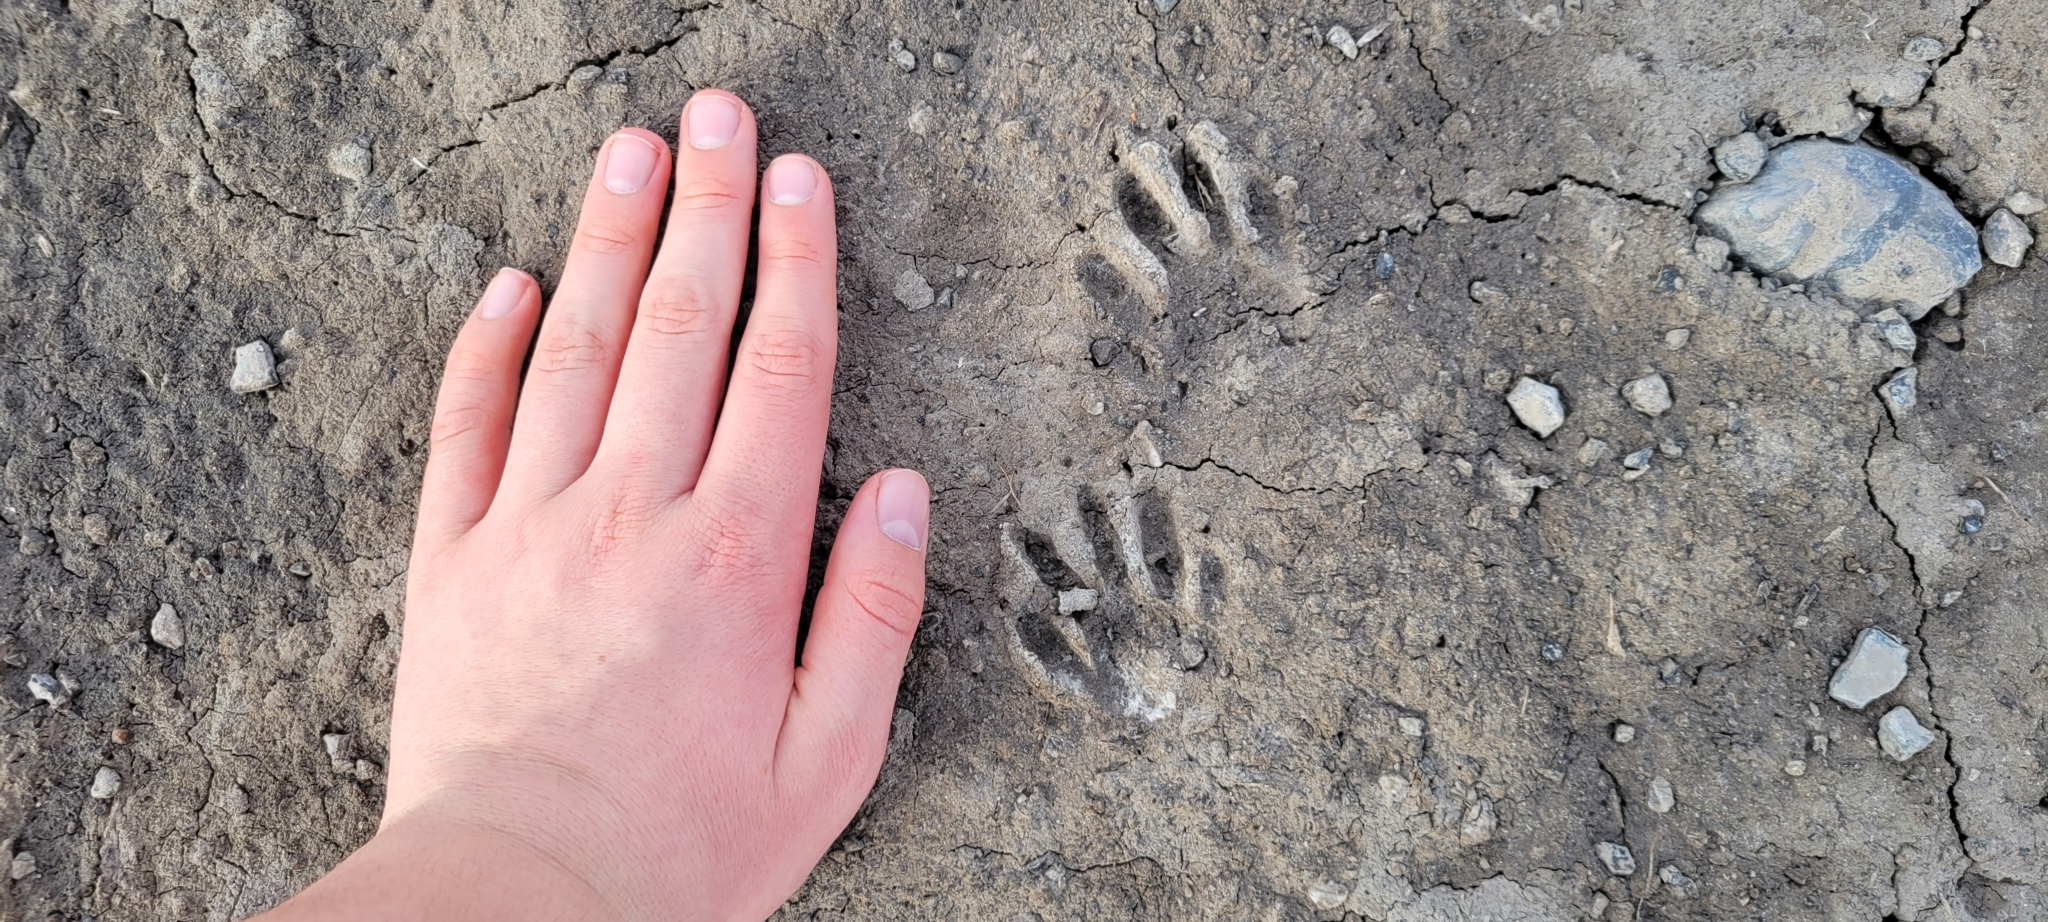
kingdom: Animalia
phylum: Chordata
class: Mammalia
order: Carnivora
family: Procyonidae
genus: Procyon
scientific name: Procyon lotor
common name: Raccoon
